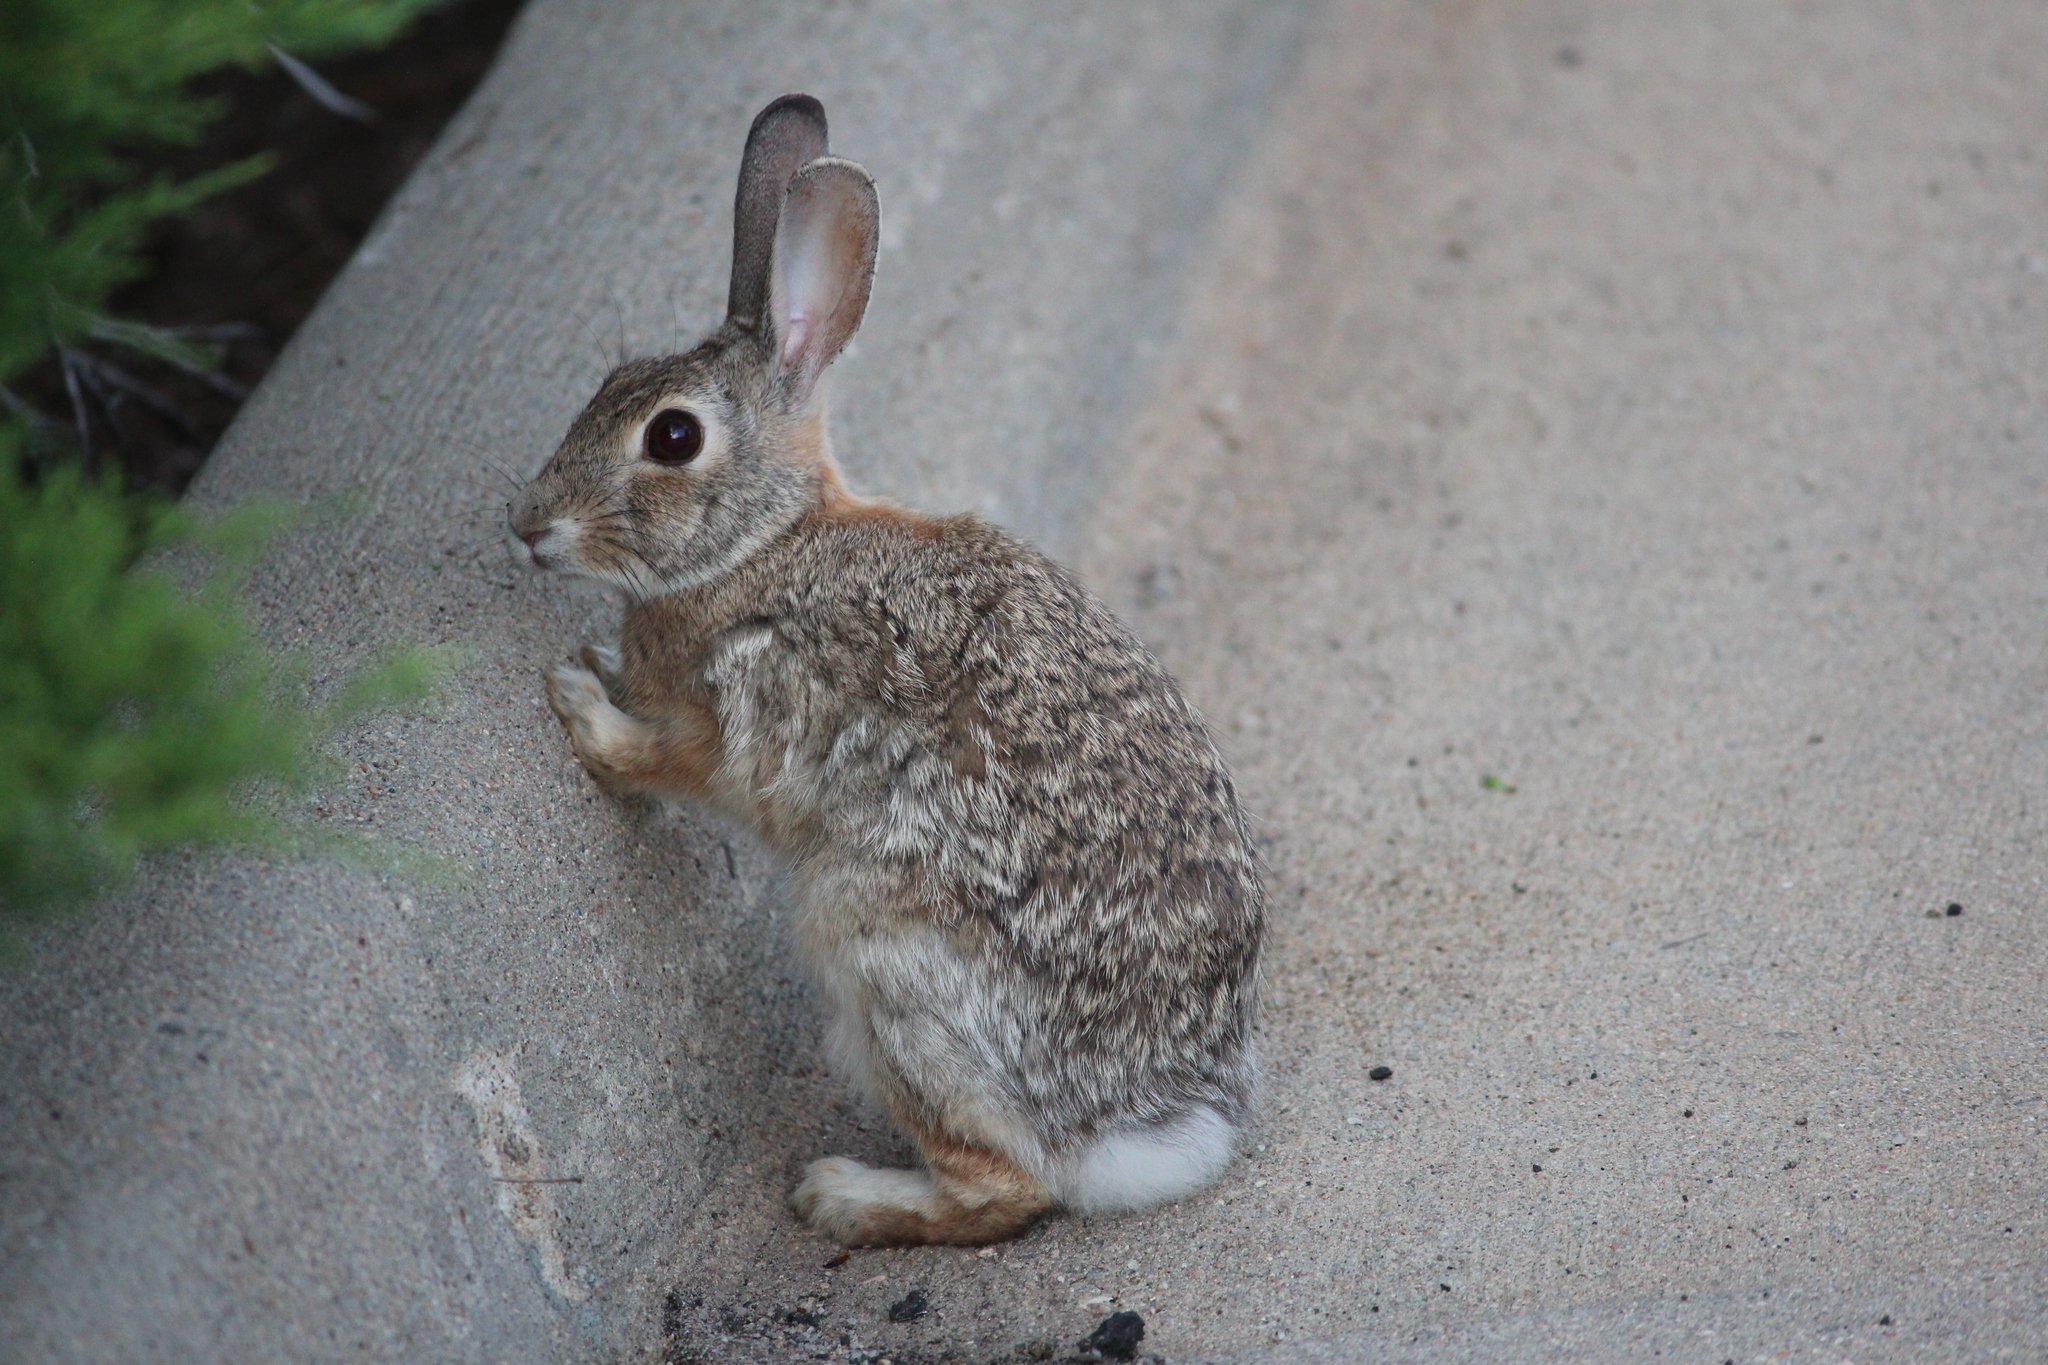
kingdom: Animalia
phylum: Chordata
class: Mammalia
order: Lagomorpha
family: Leporidae
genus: Sylvilagus
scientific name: Sylvilagus floridanus
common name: Eastern cottontail
